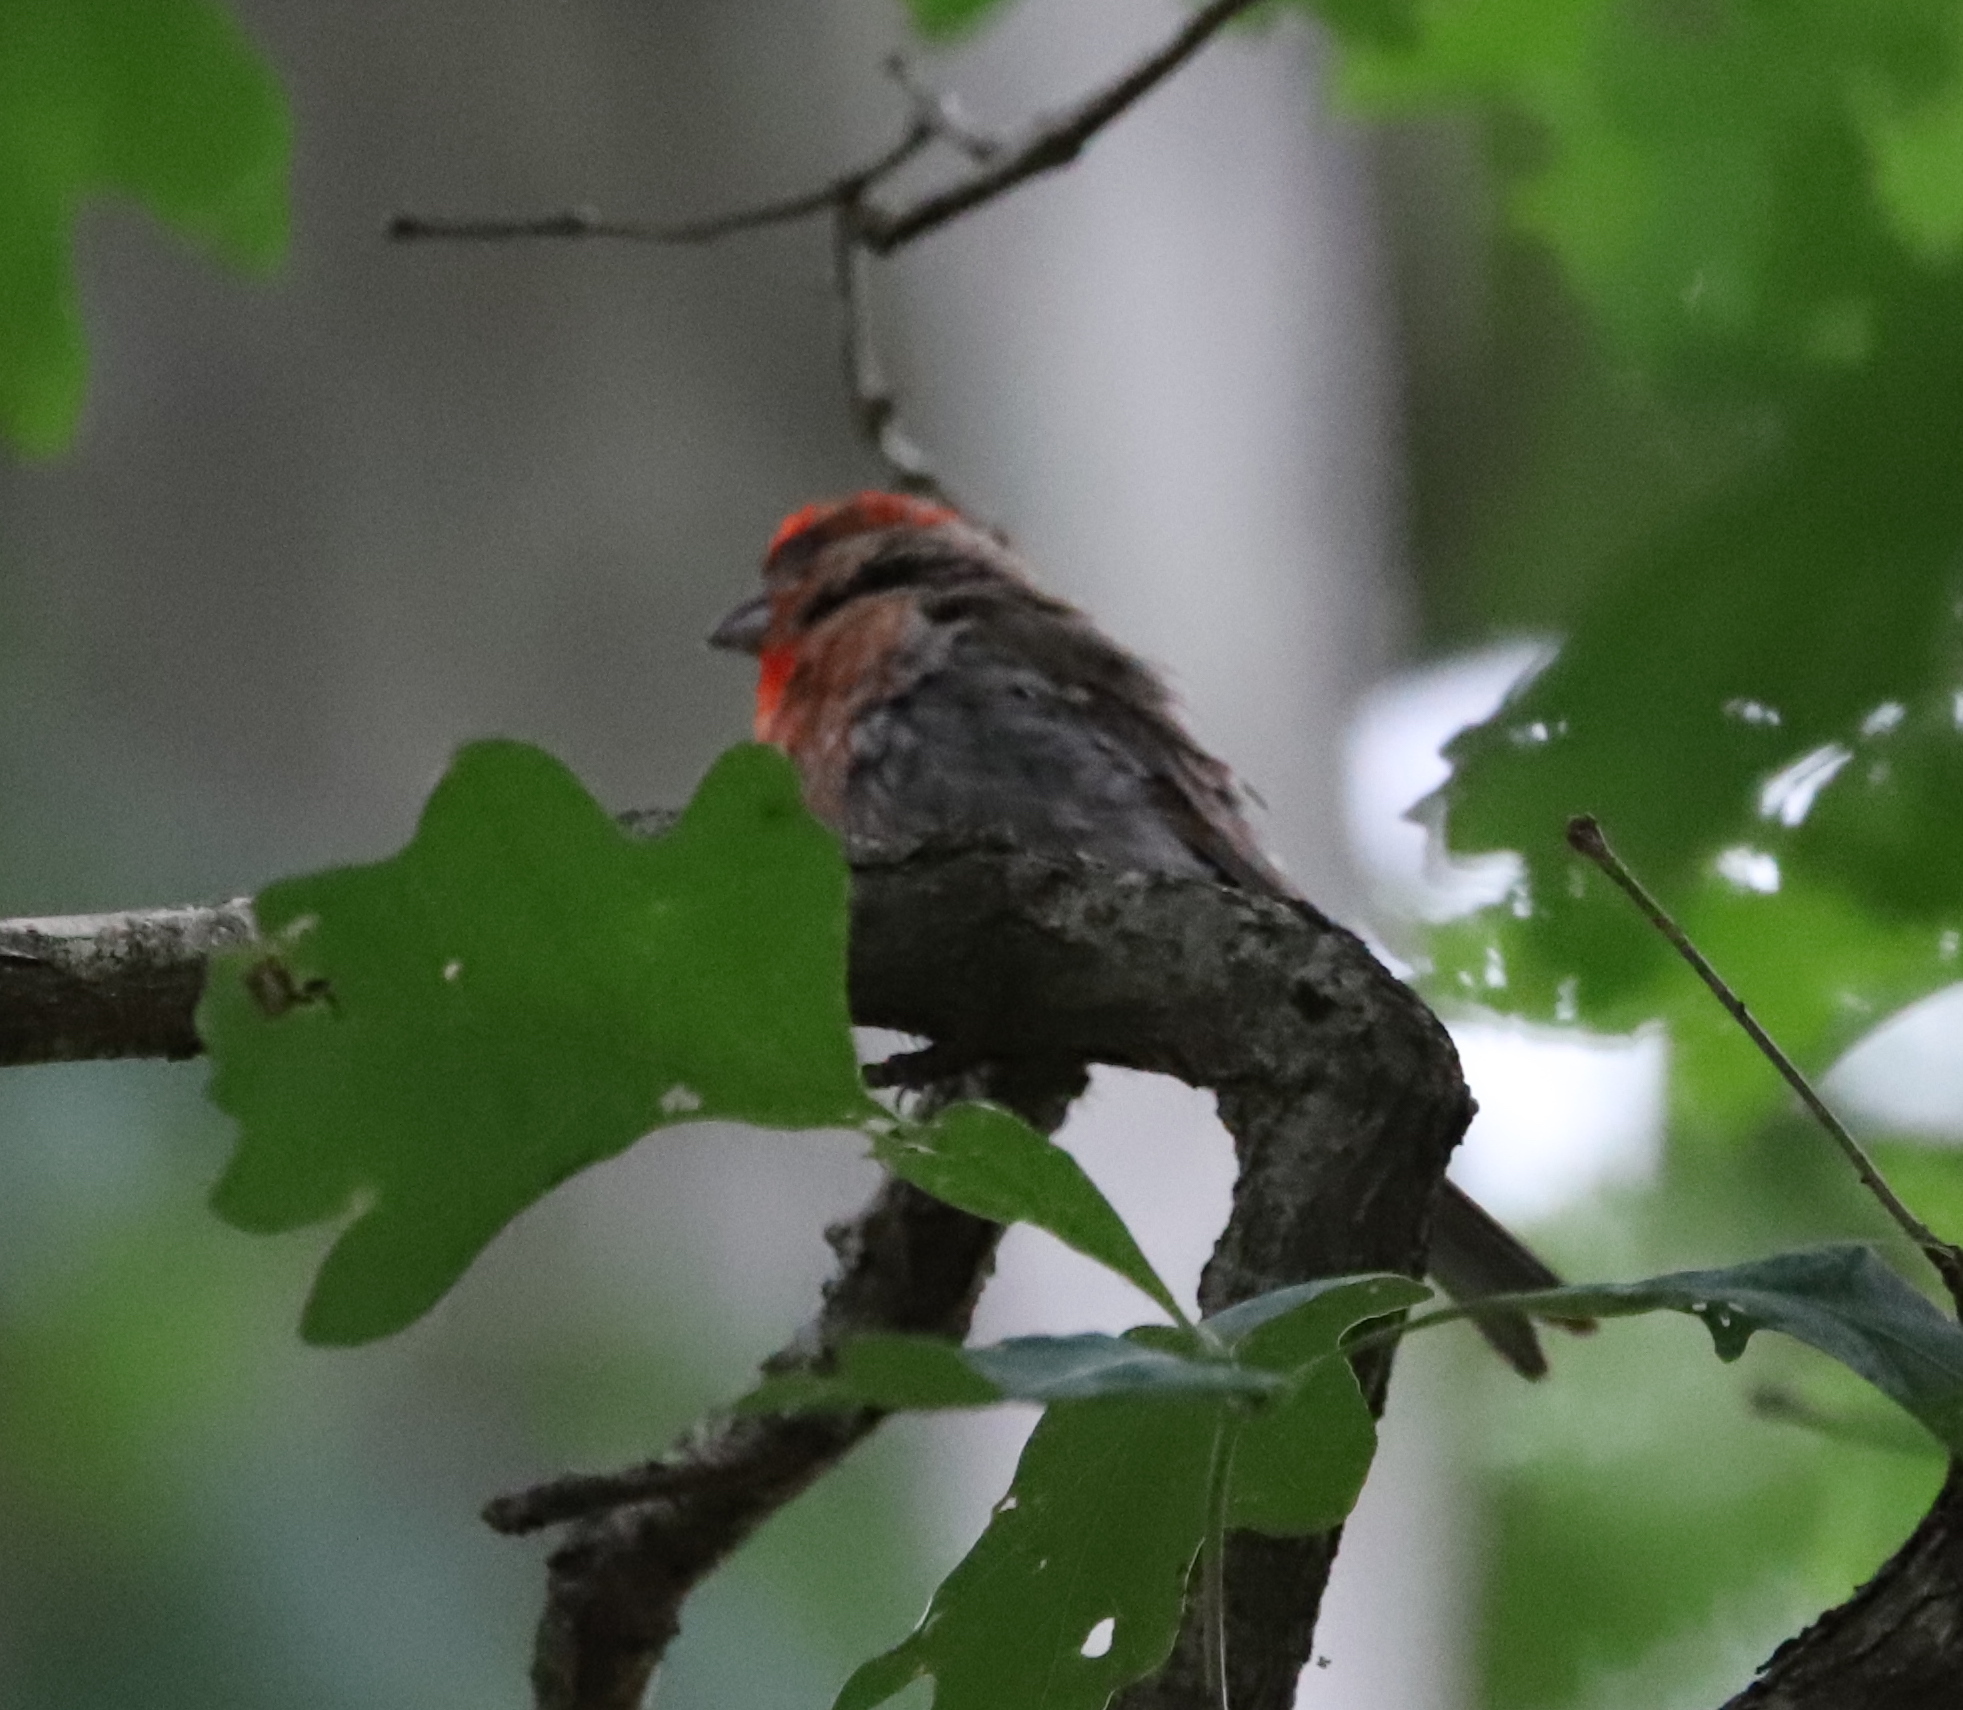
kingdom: Animalia
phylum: Chordata
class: Aves
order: Passeriformes
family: Fringillidae
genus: Haemorhous
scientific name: Haemorhous mexicanus
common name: House finch
